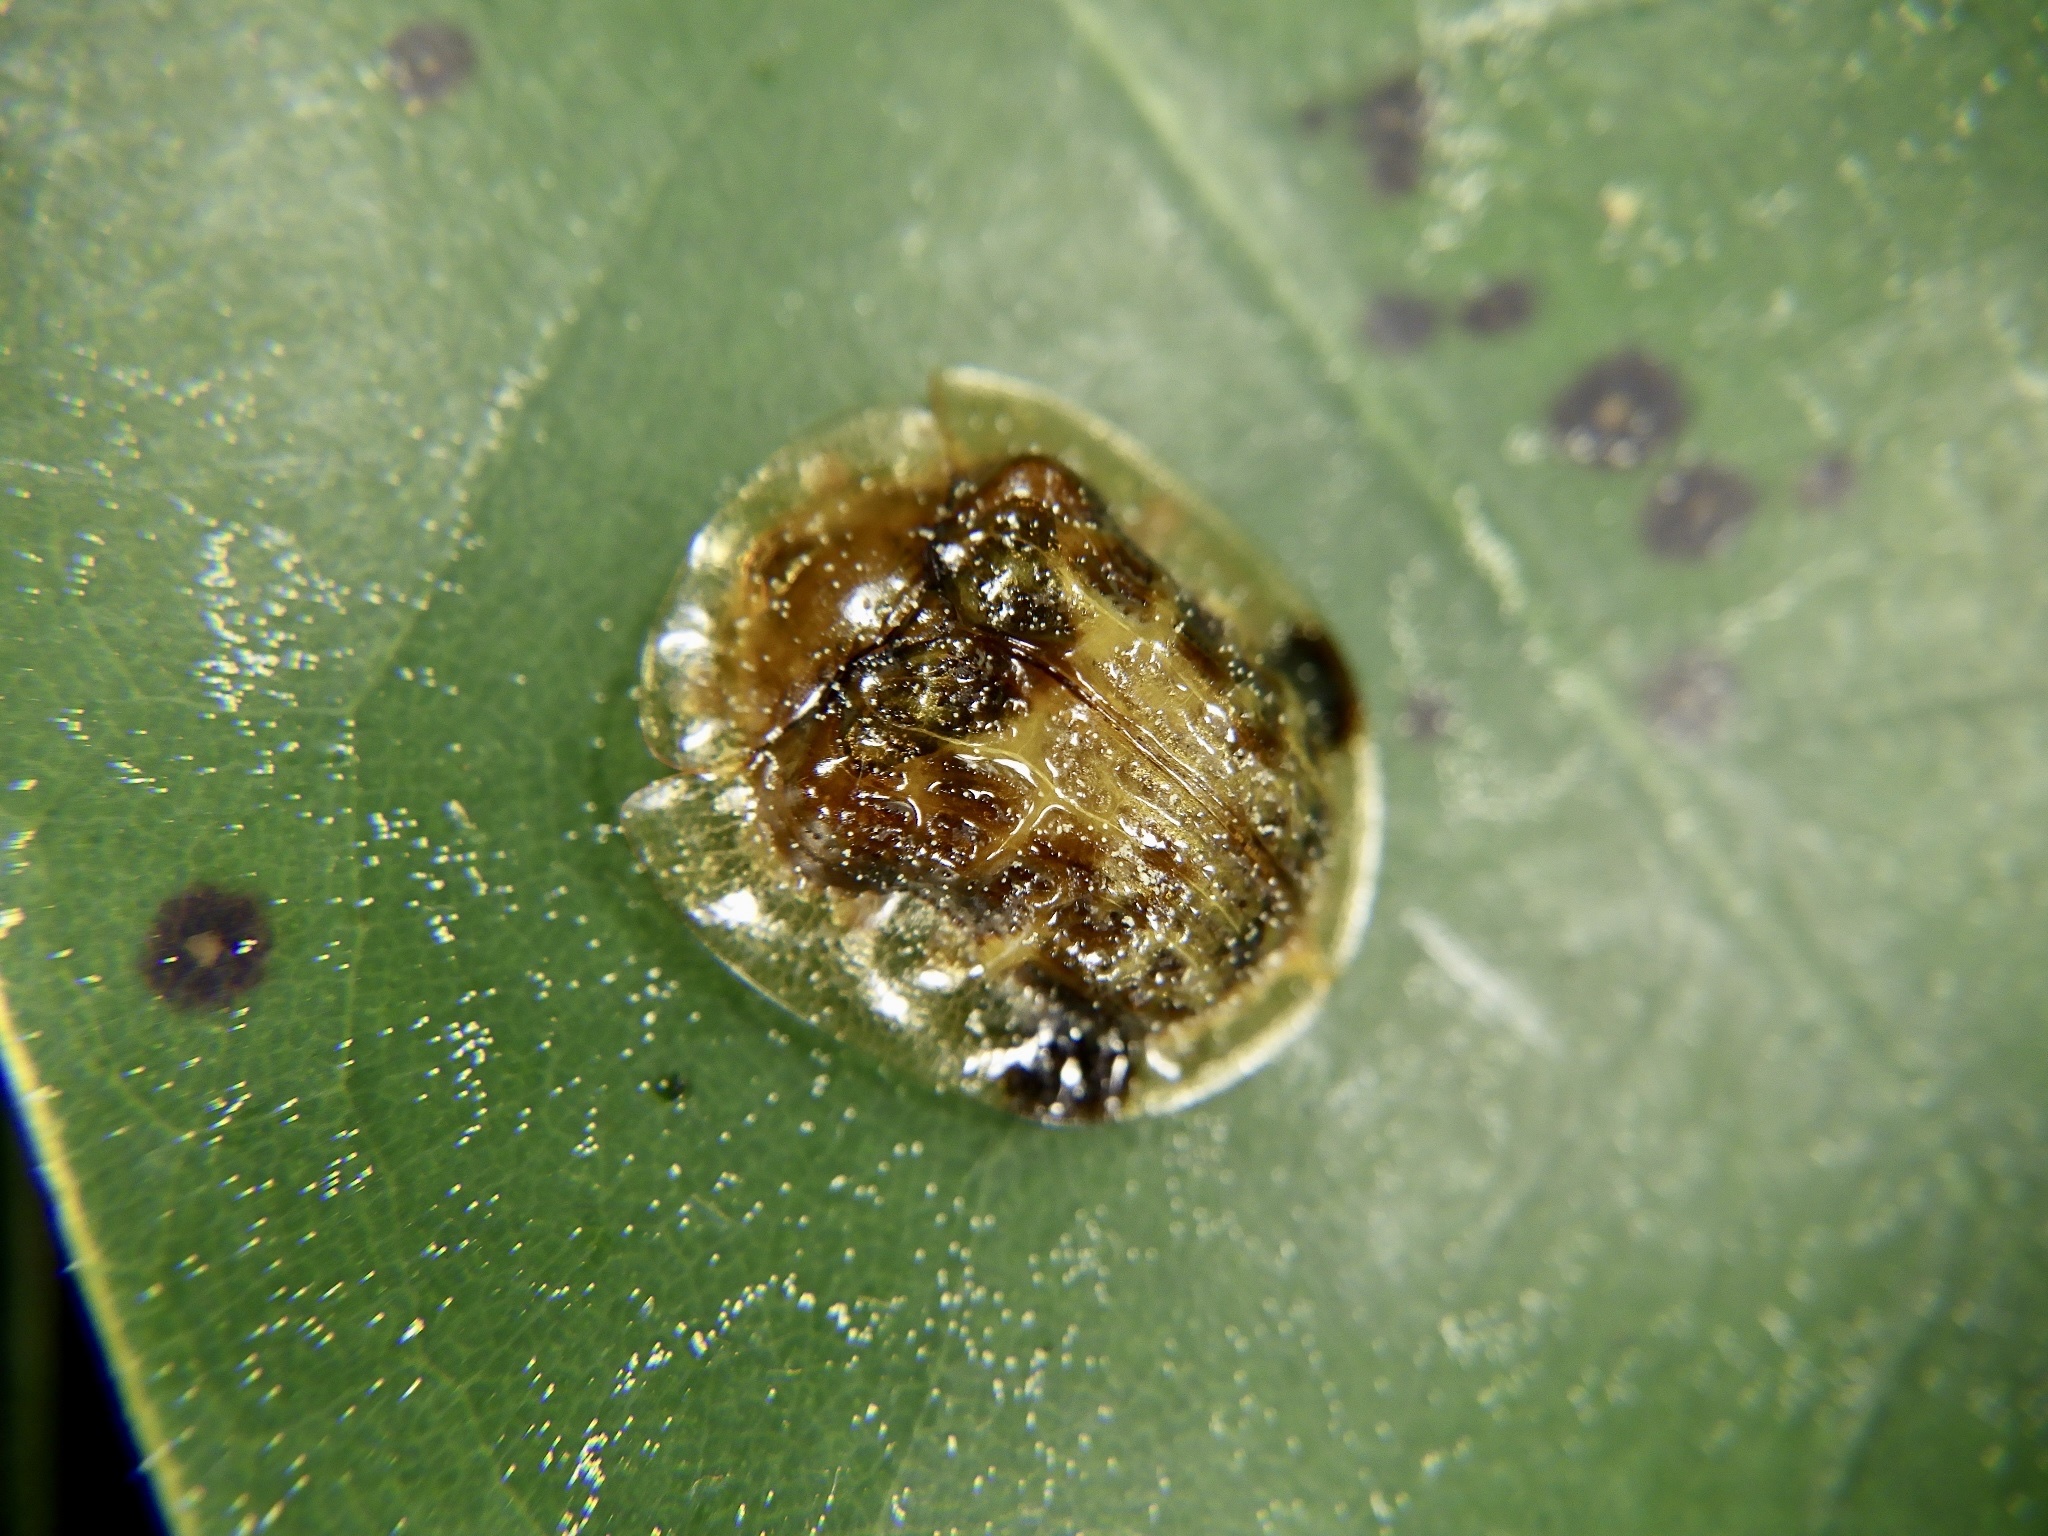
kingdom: Animalia
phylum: Arthropoda
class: Insecta
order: Coleoptera
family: Chrysomelidae
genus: Thlaspida
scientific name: Thlaspida cribrosa
